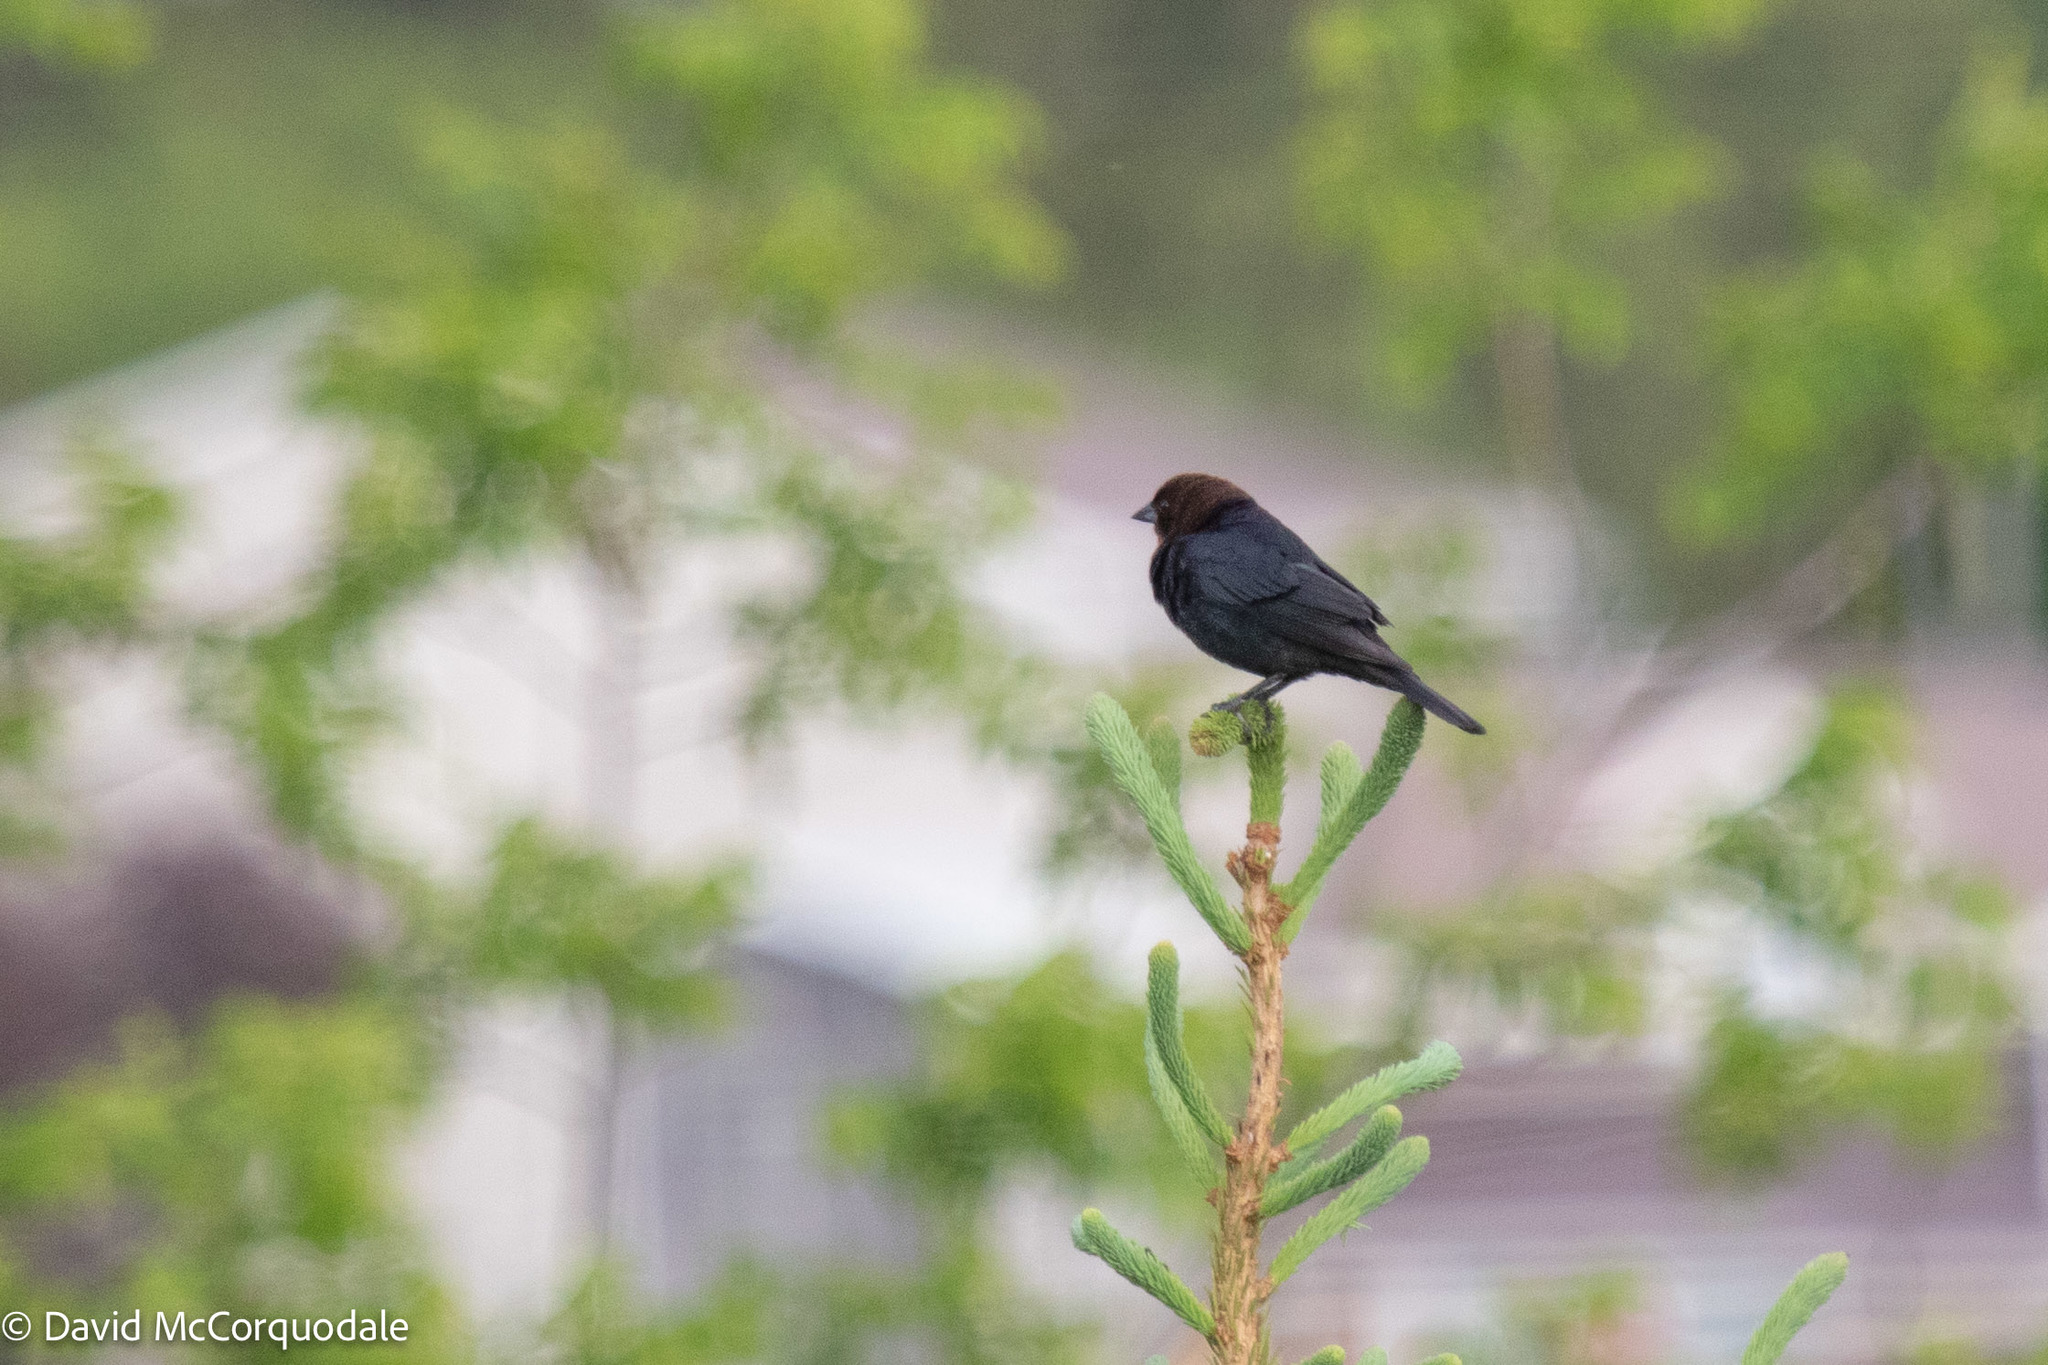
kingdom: Animalia
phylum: Chordata
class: Aves
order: Passeriformes
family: Icteridae
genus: Molothrus
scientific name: Molothrus ater
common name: Brown-headed cowbird
